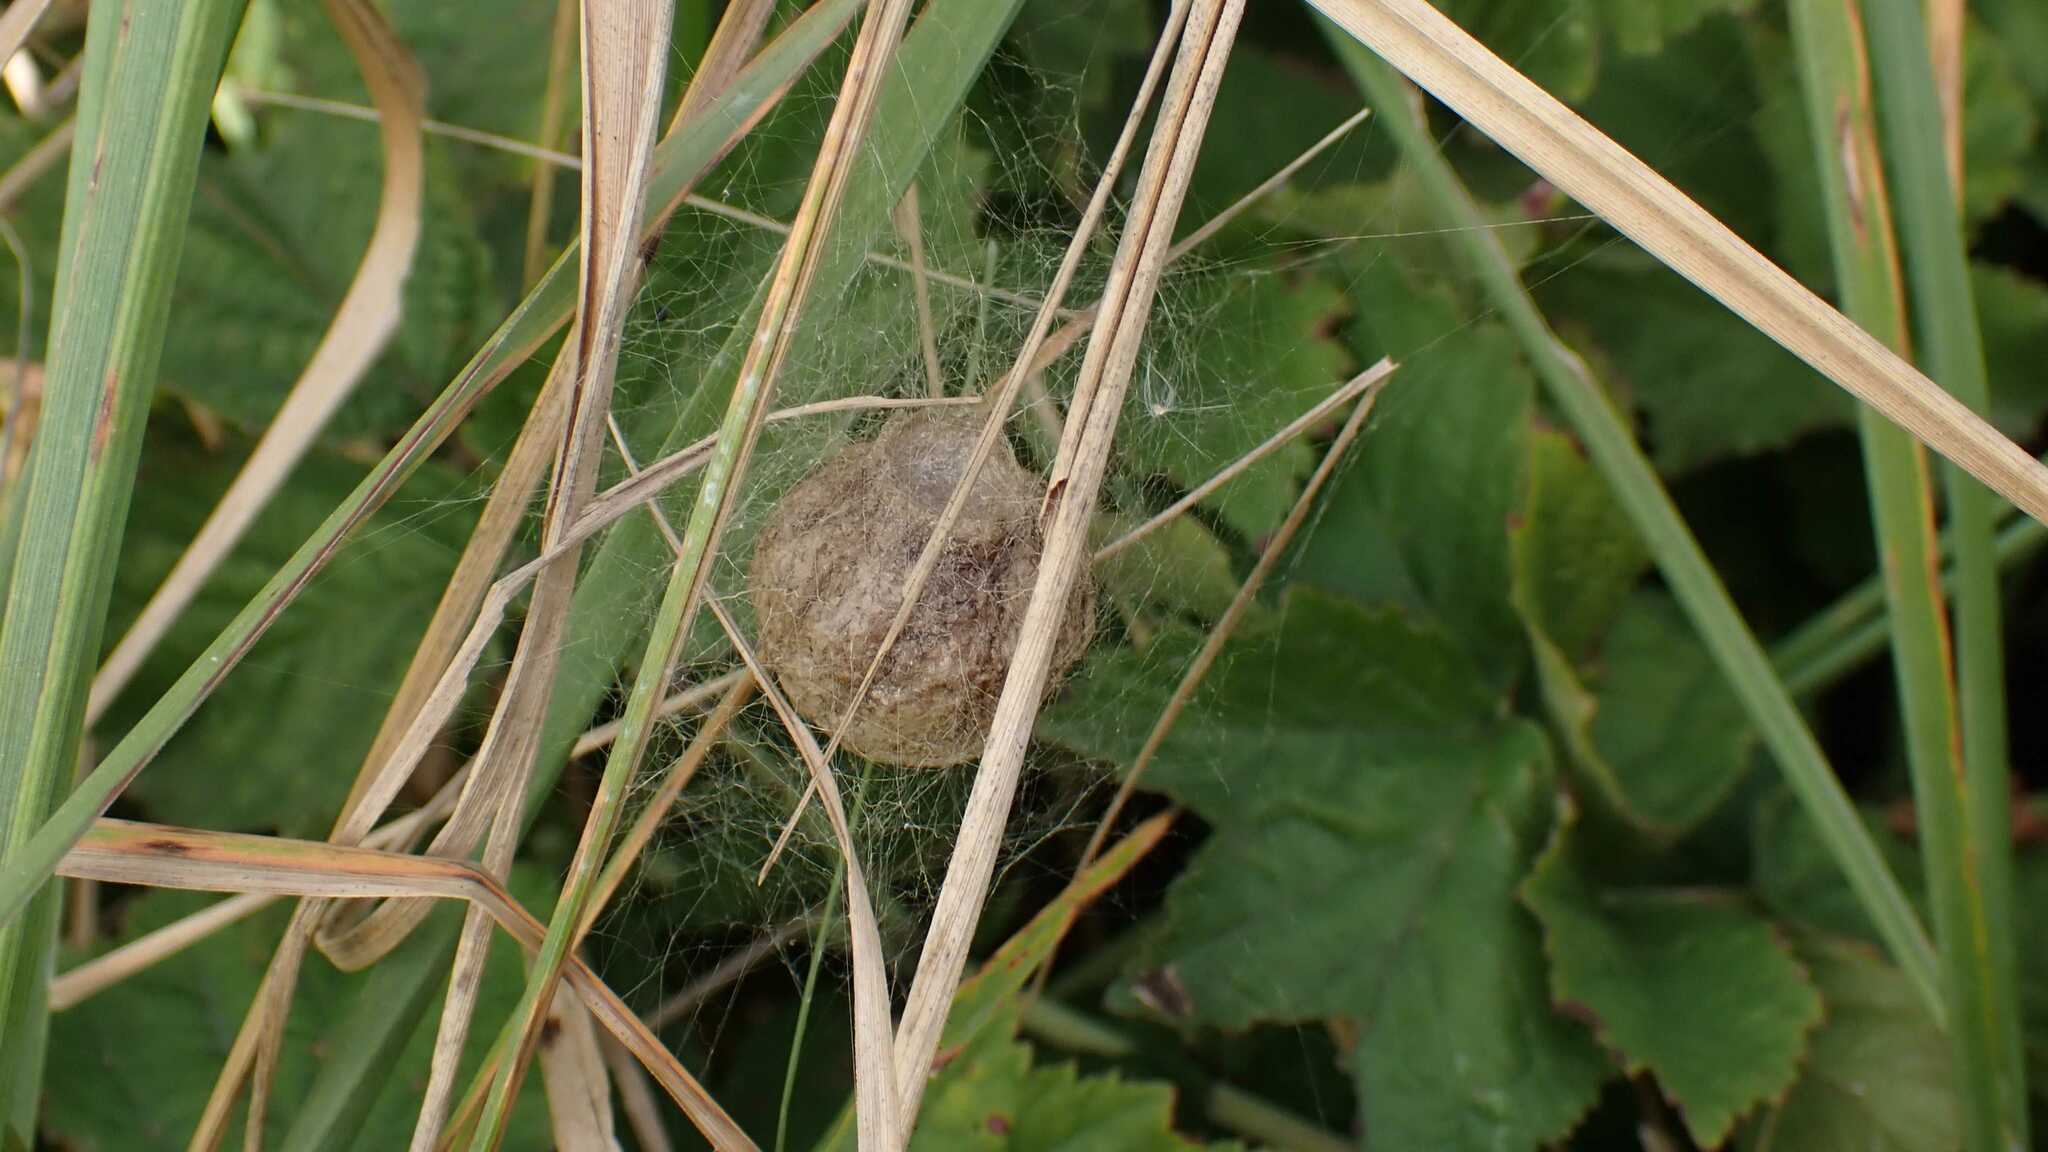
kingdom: Animalia
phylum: Arthropoda
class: Arachnida
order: Araneae
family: Araneidae
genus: Argiope
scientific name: Argiope bruennichi
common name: Wasp spider
